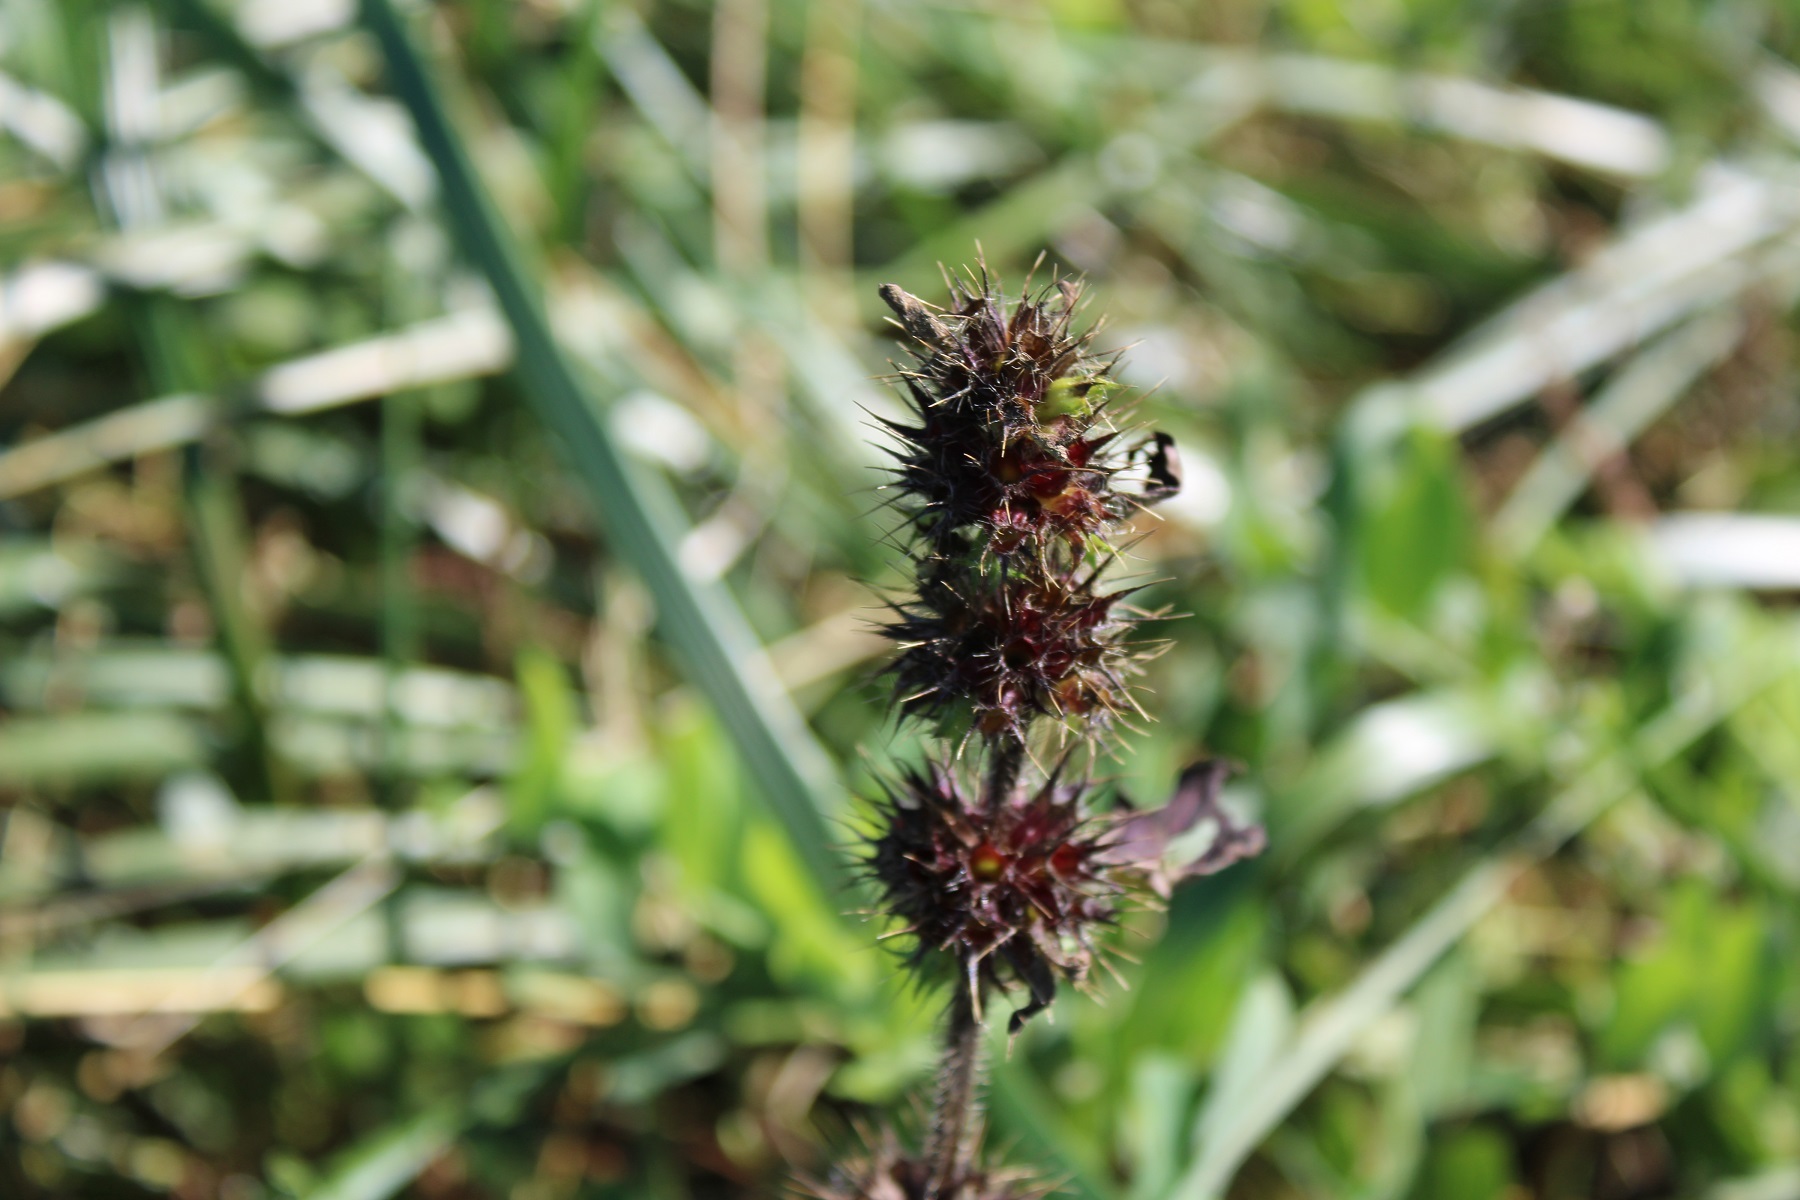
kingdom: Plantae
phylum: Tracheophyta
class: Magnoliopsida
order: Lamiales
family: Lamiaceae
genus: Galeopsis
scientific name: Galeopsis tetrahit
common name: Common hemp-nettle
